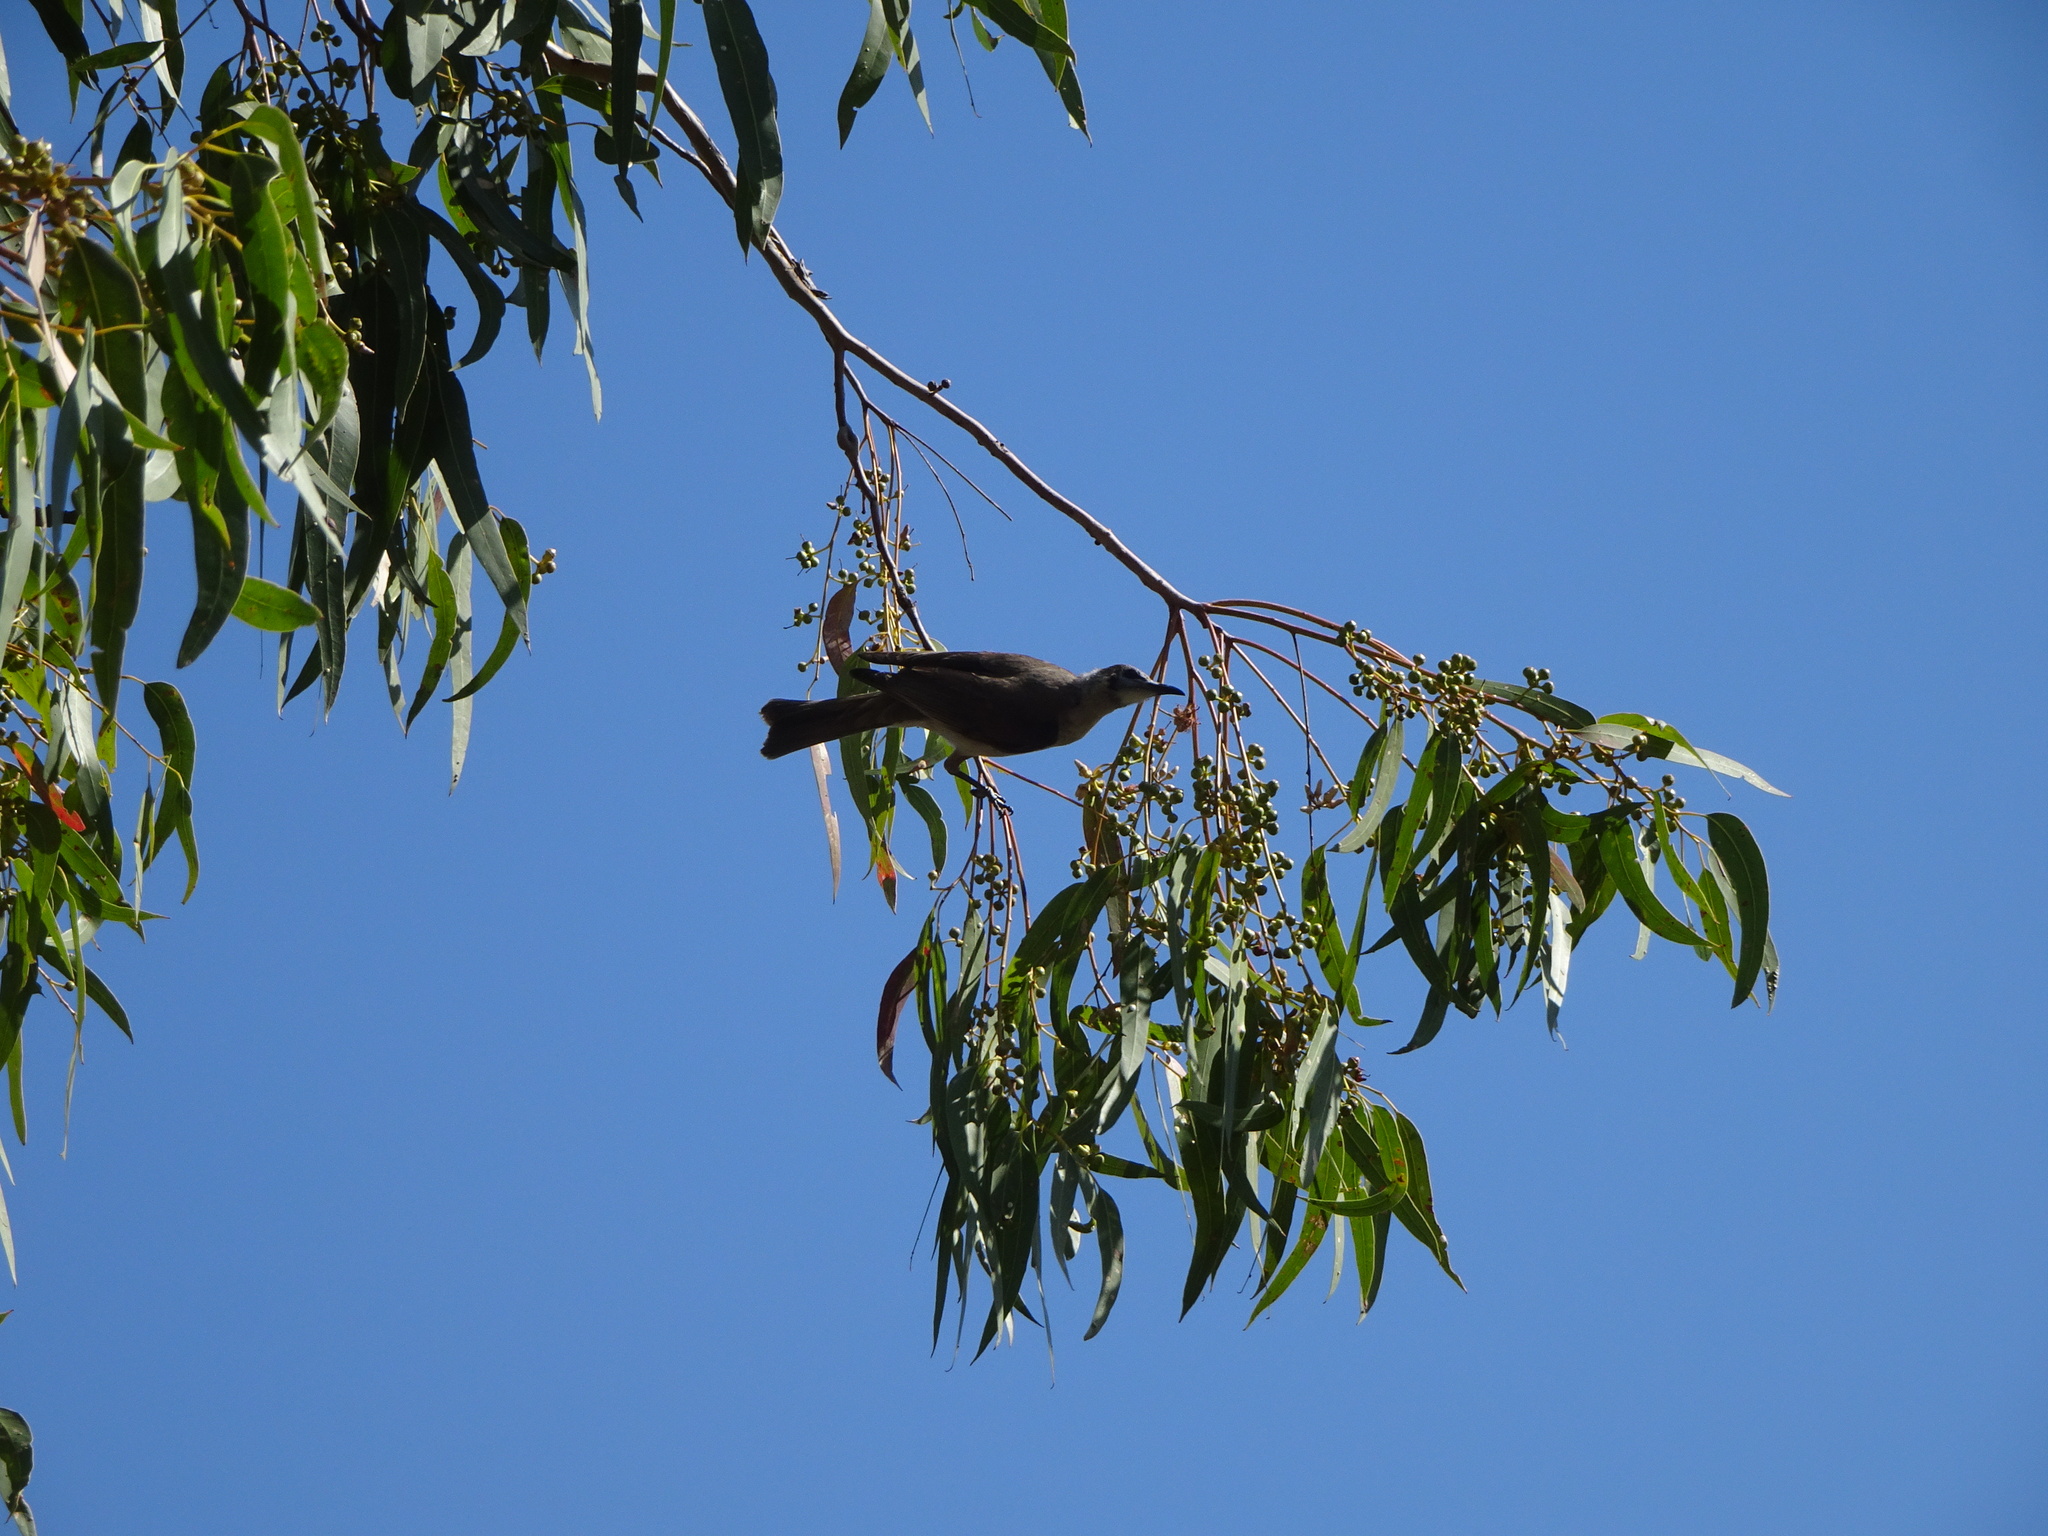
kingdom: Animalia
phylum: Chordata
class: Aves
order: Passeriformes
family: Meliphagidae
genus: Philemon
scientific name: Philemon citreogularis
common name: Little friarbird
